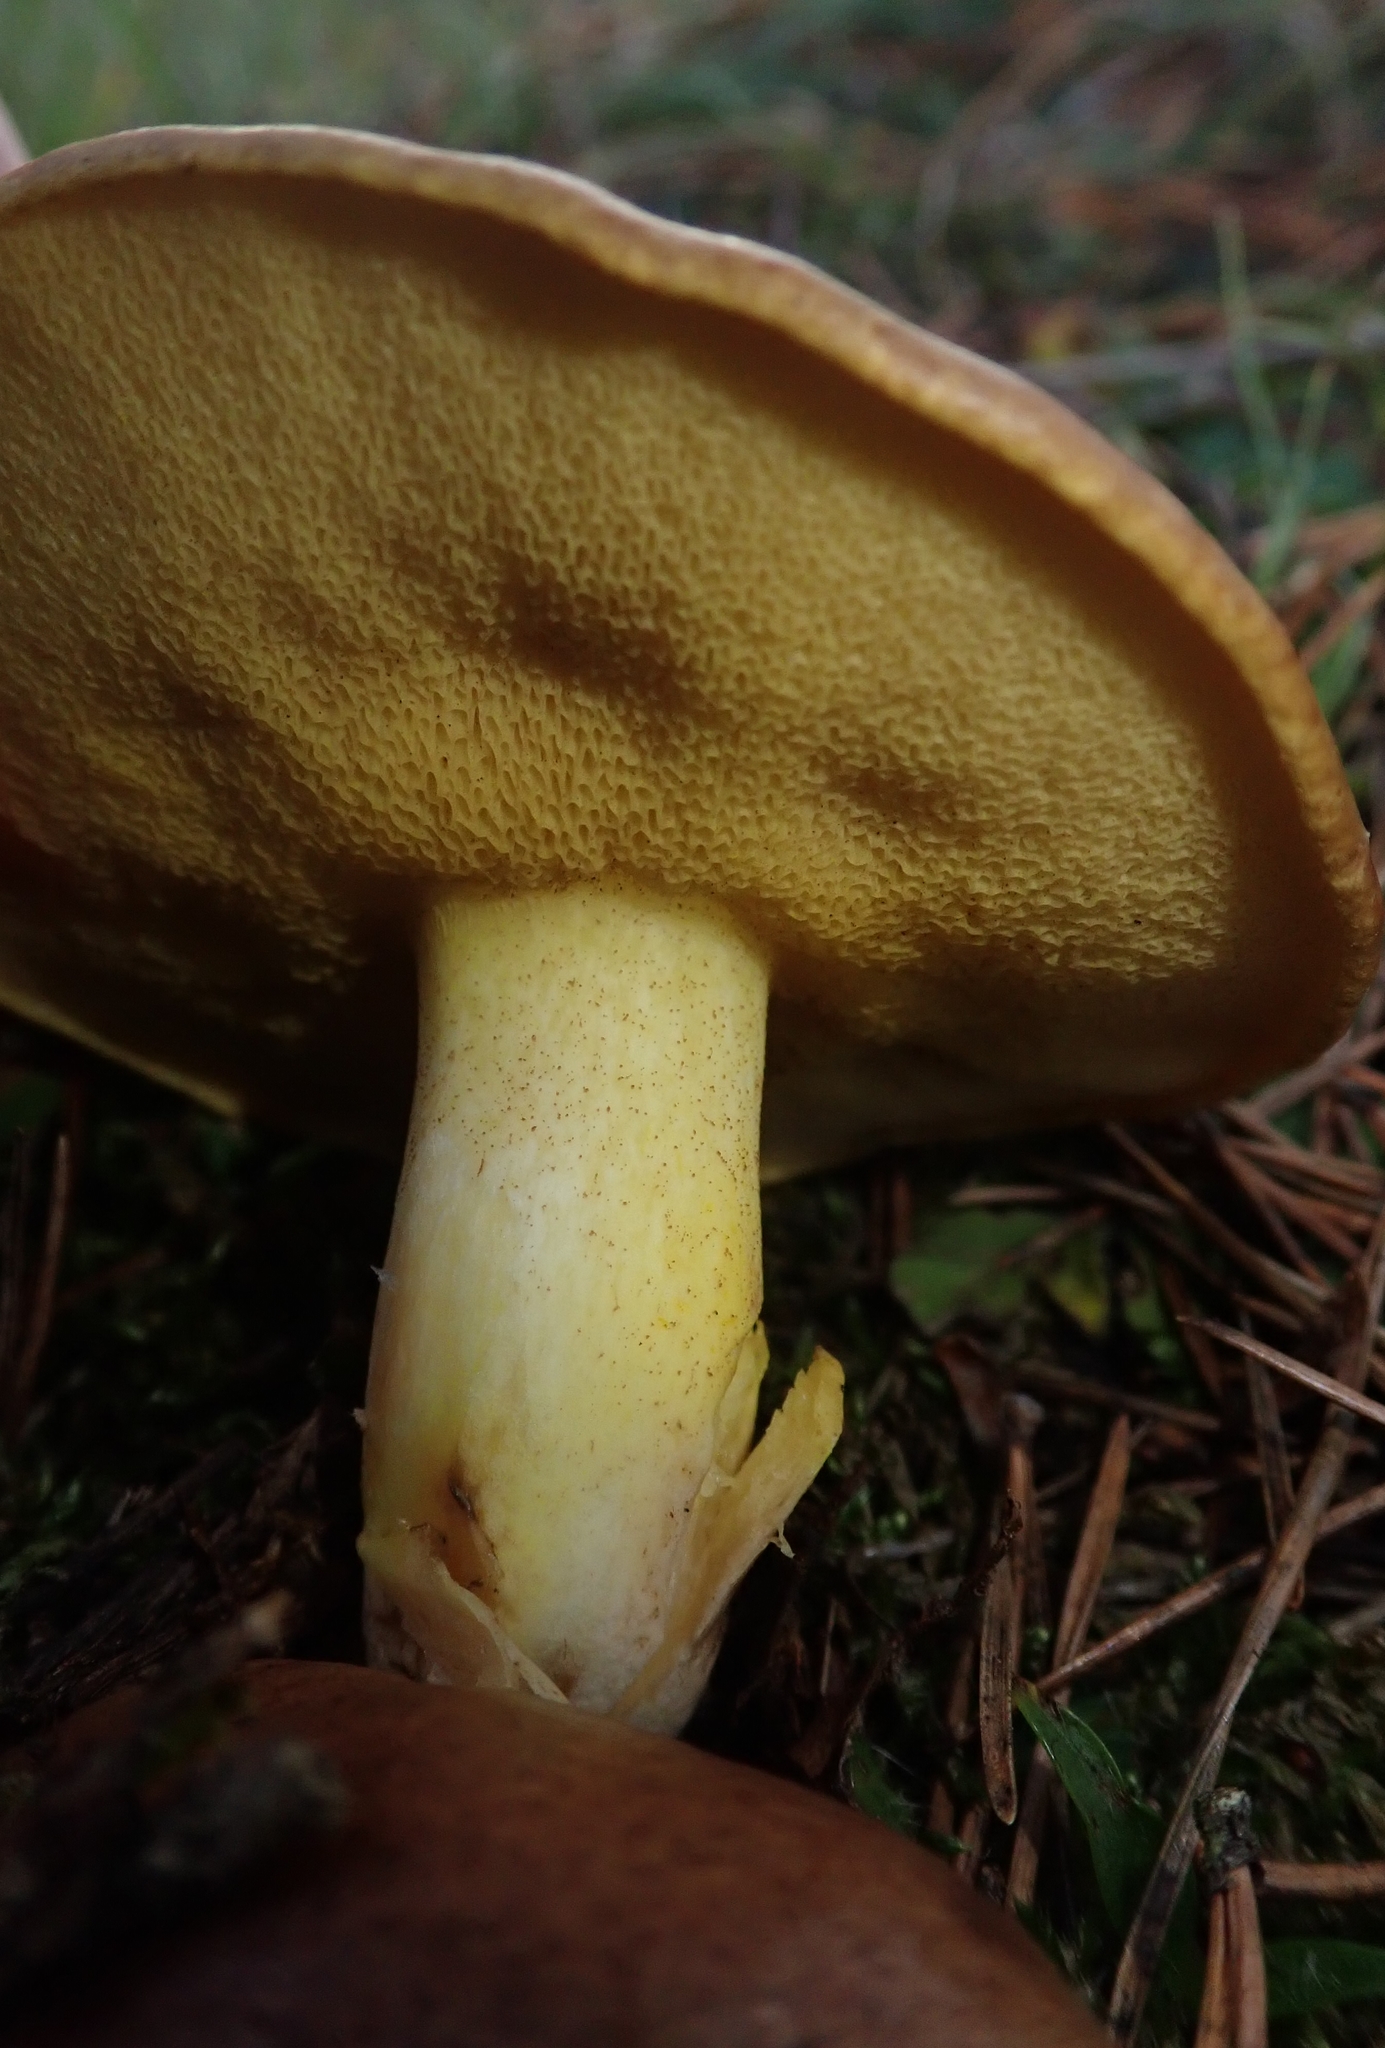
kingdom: Fungi
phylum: Basidiomycota
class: Agaricomycetes
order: Boletales
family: Suillaceae
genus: Suillus
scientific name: Suillus granulatus
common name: Weeping bolete
